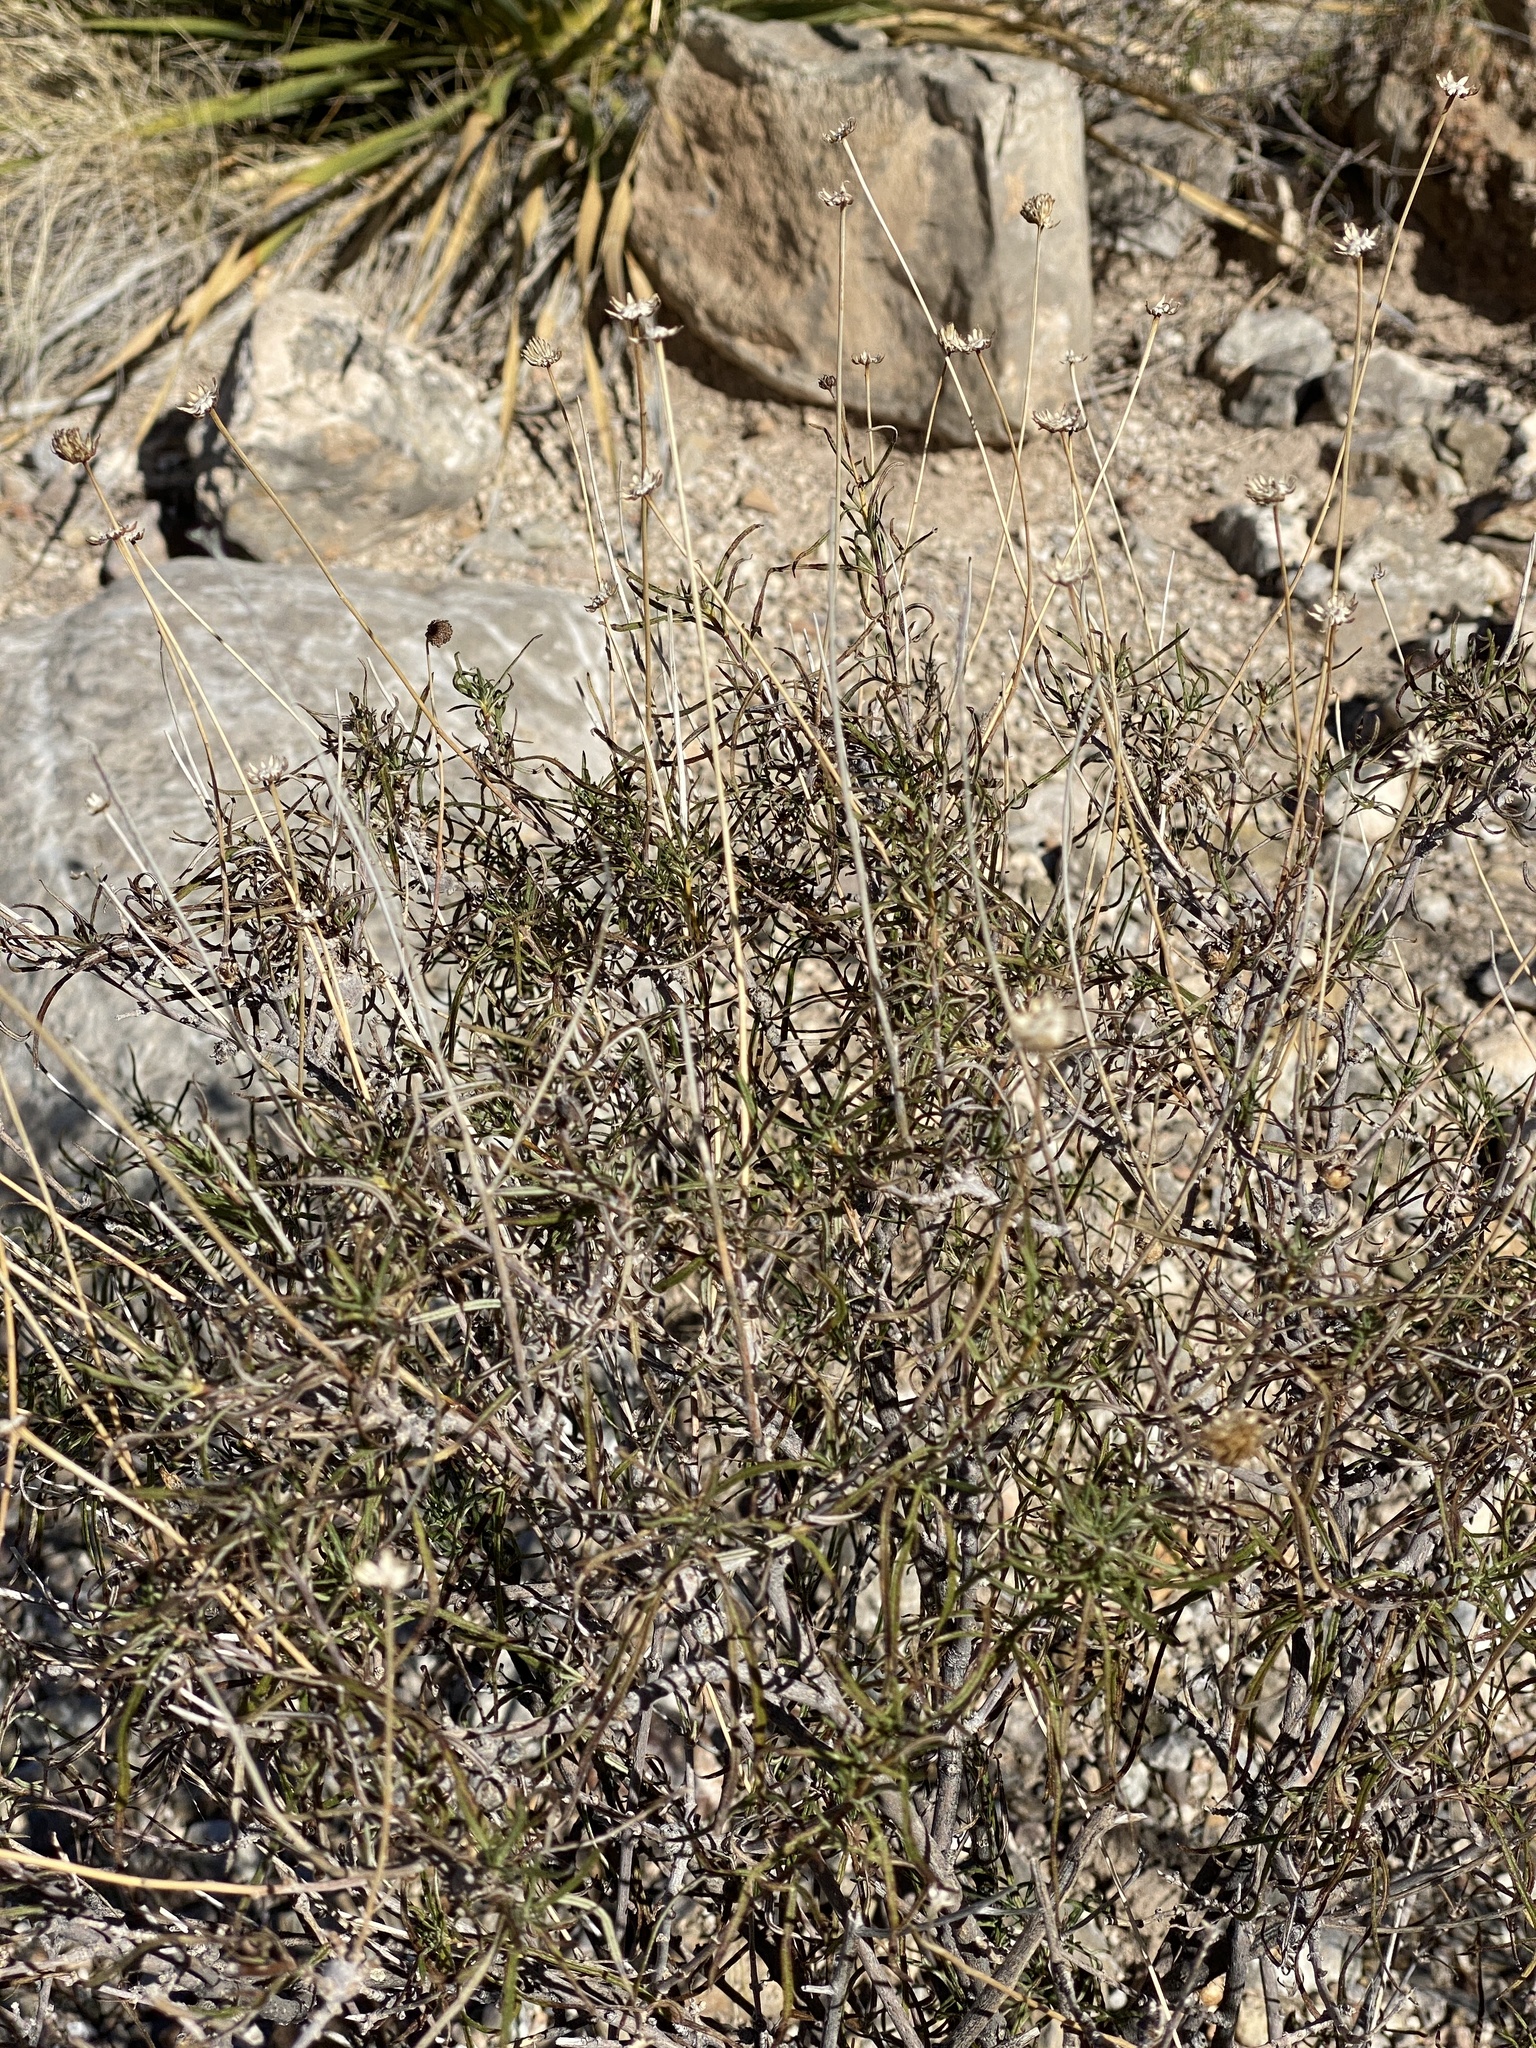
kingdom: Plantae
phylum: Tracheophyta
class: Magnoliopsida
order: Asterales
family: Asteraceae
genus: Sidneya
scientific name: Sidneya tenuifolia
